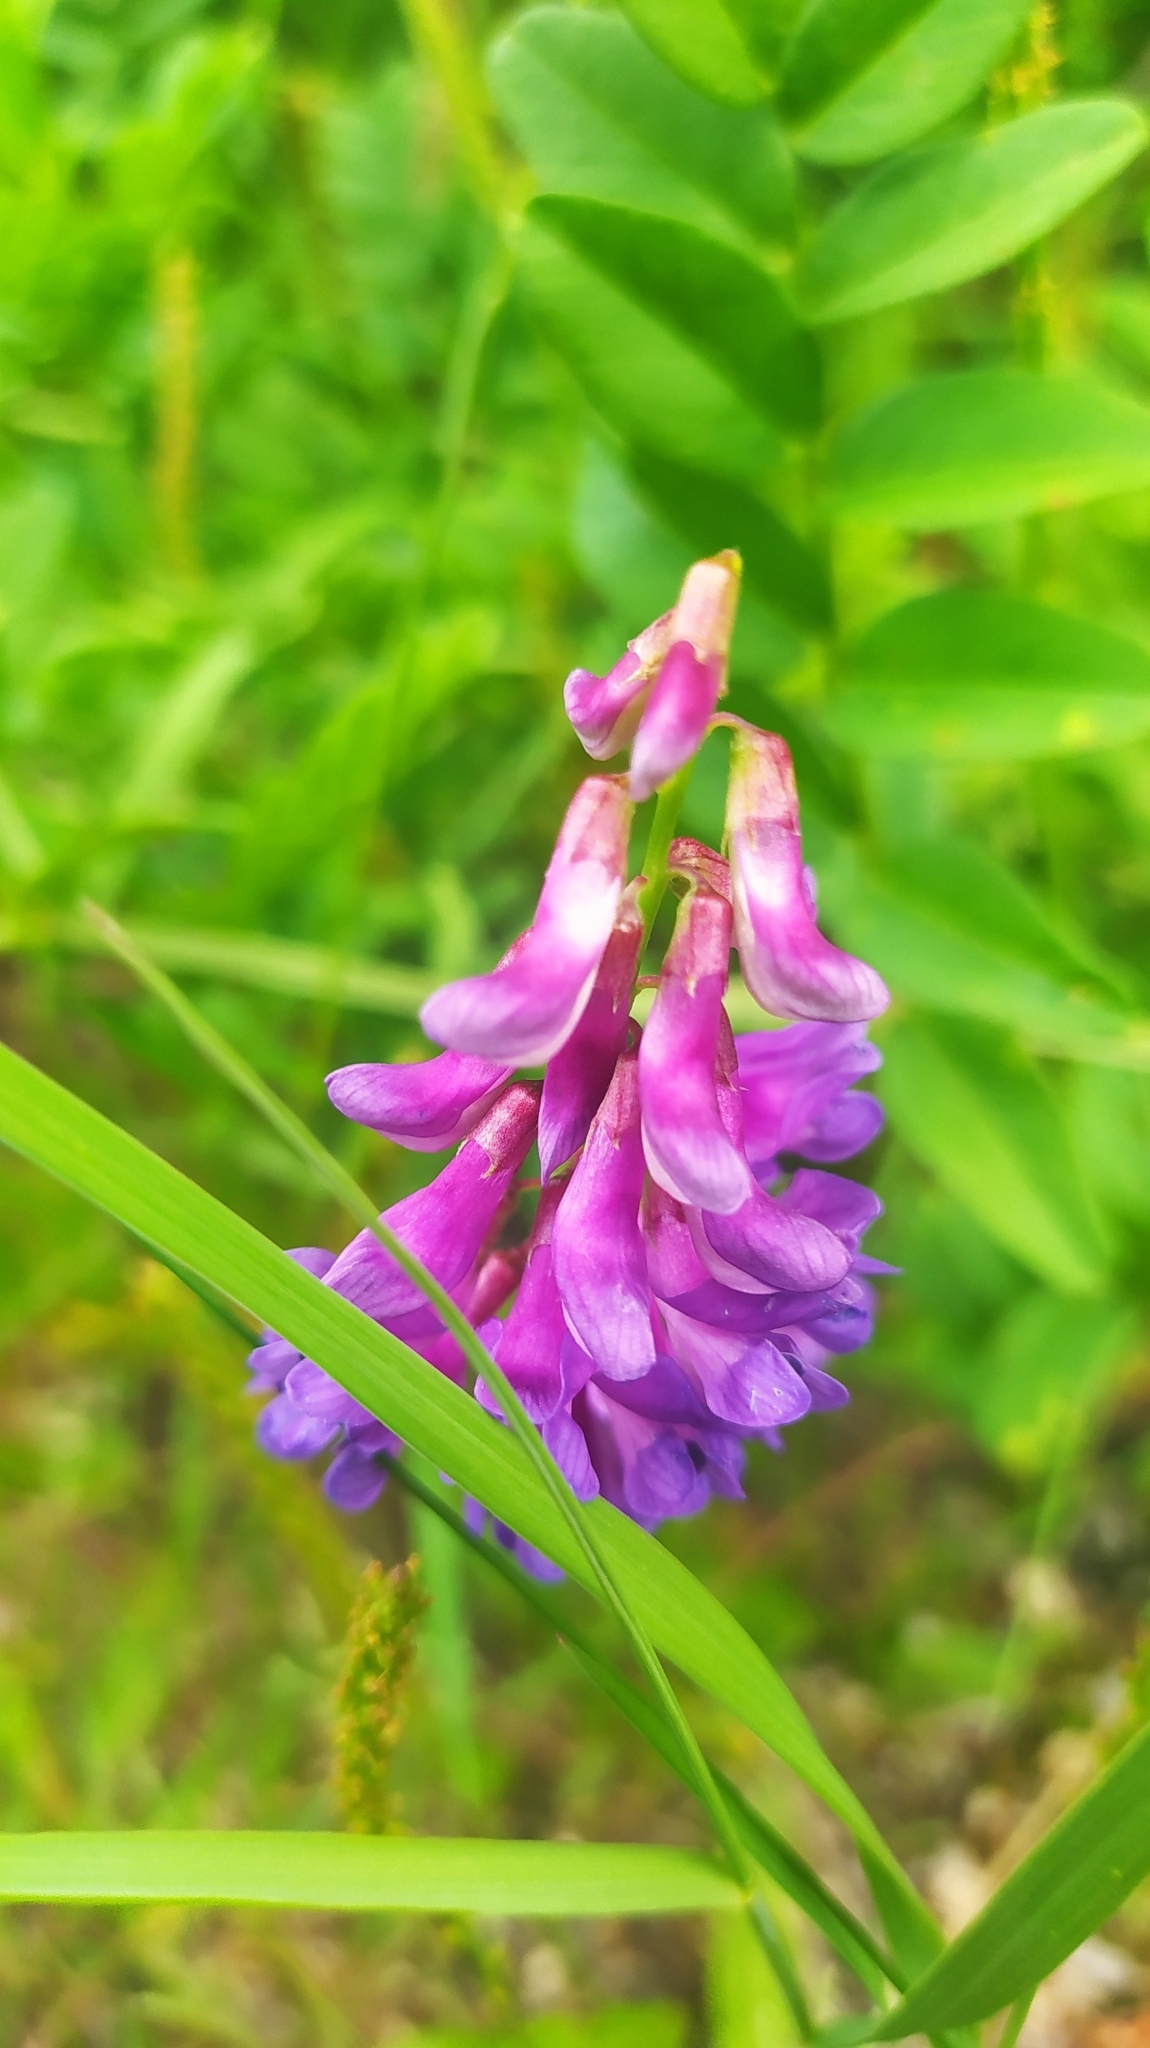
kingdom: Plantae
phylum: Tracheophyta
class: Magnoliopsida
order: Fabales
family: Fabaceae
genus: Vicia
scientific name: Vicia amoena
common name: Cheder ebs
